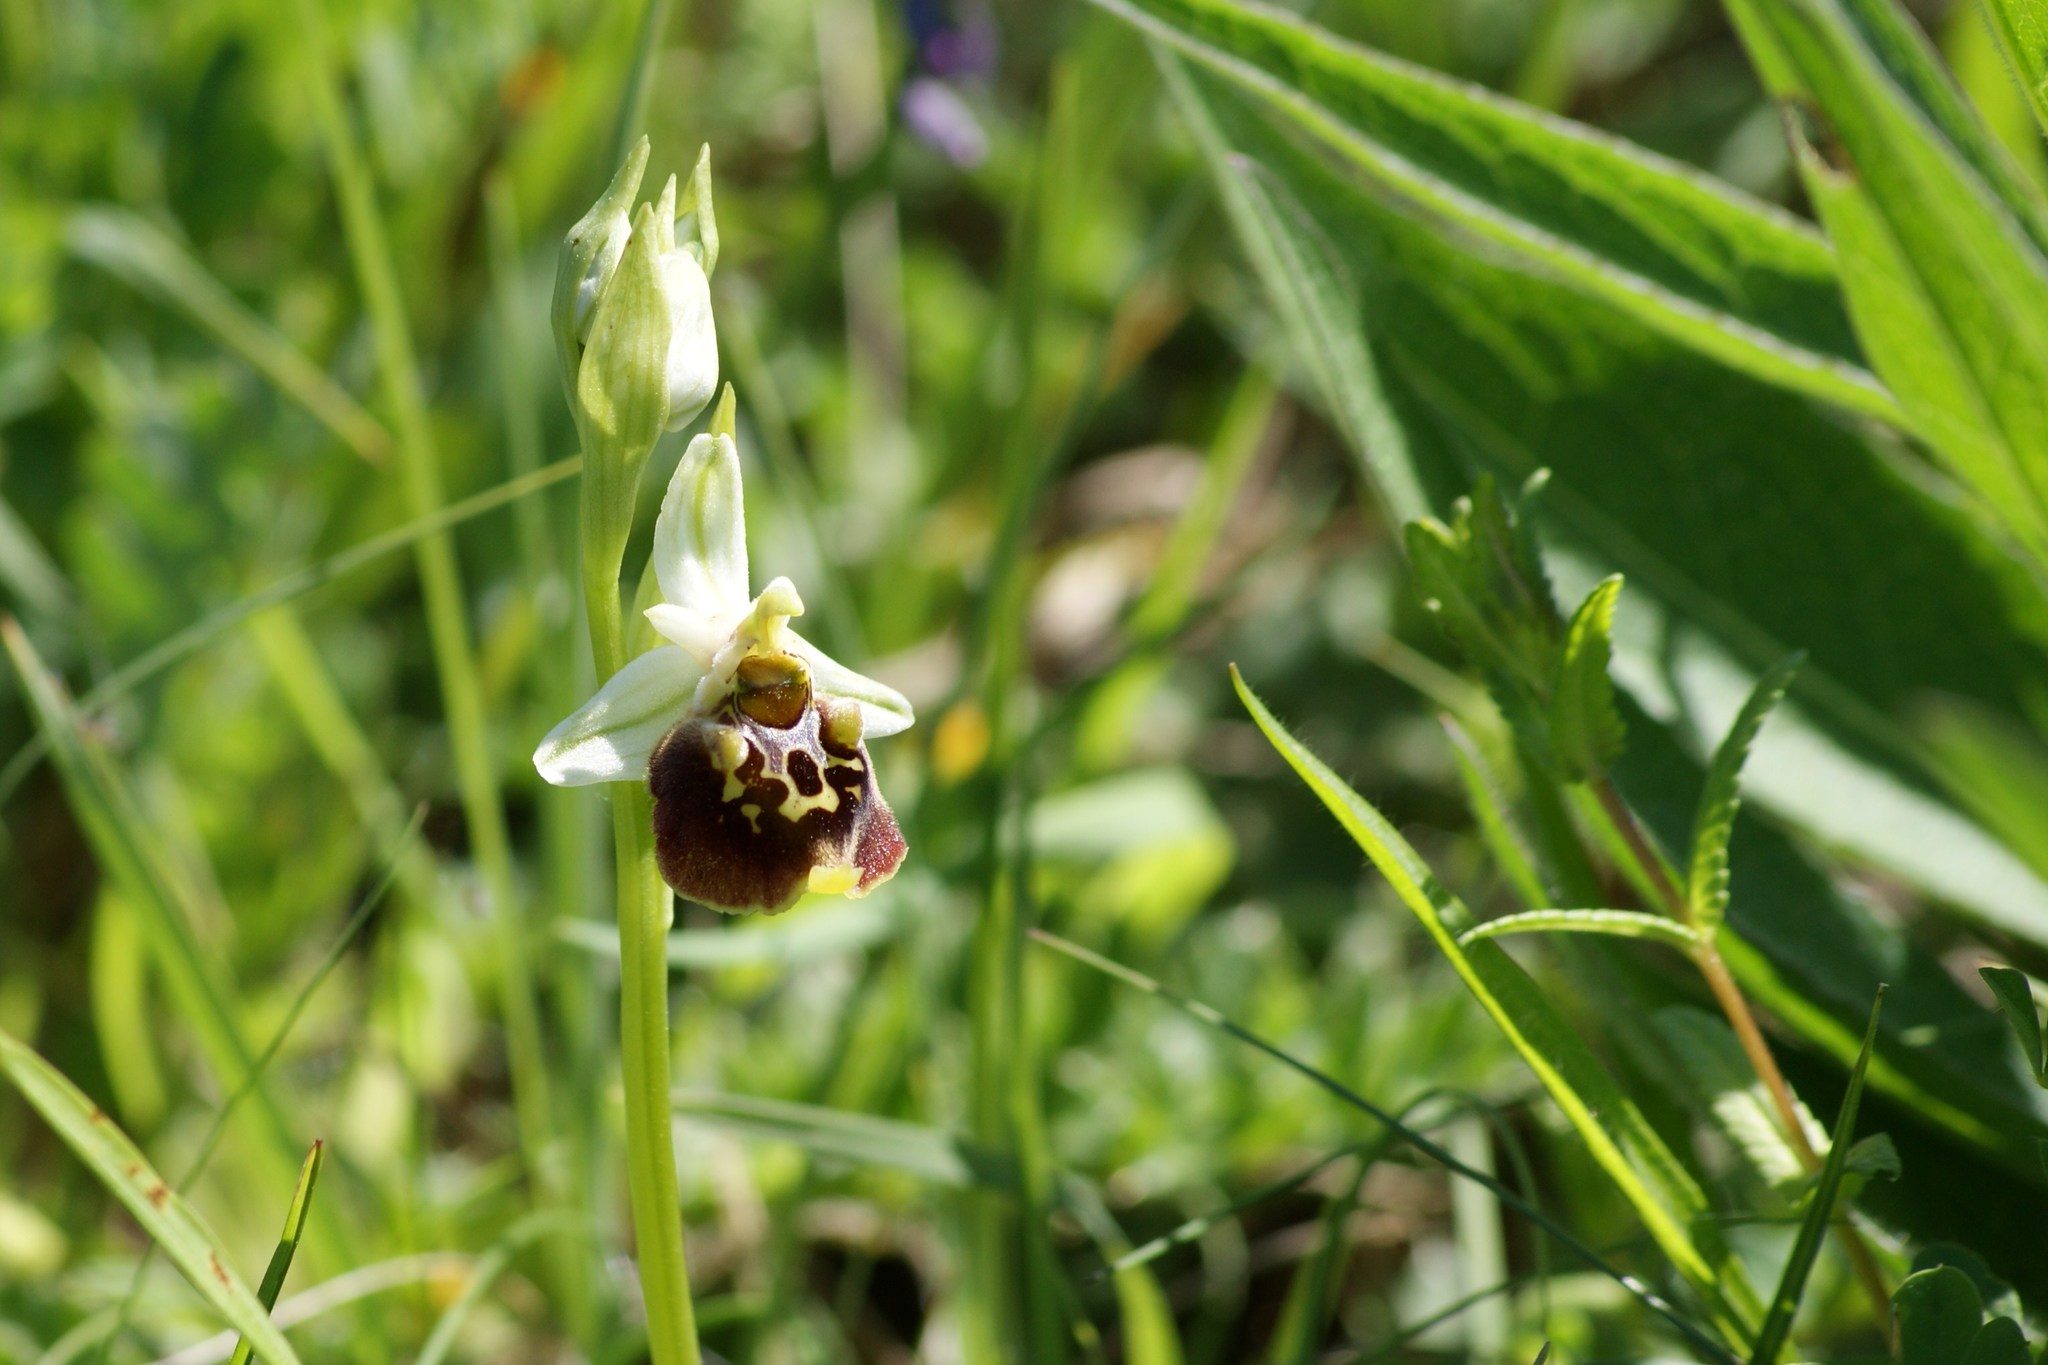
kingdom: Plantae
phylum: Tracheophyta
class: Liliopsida
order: Asparagales
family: Orchidaceae
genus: Ophrys
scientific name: Ophrys holosericea
